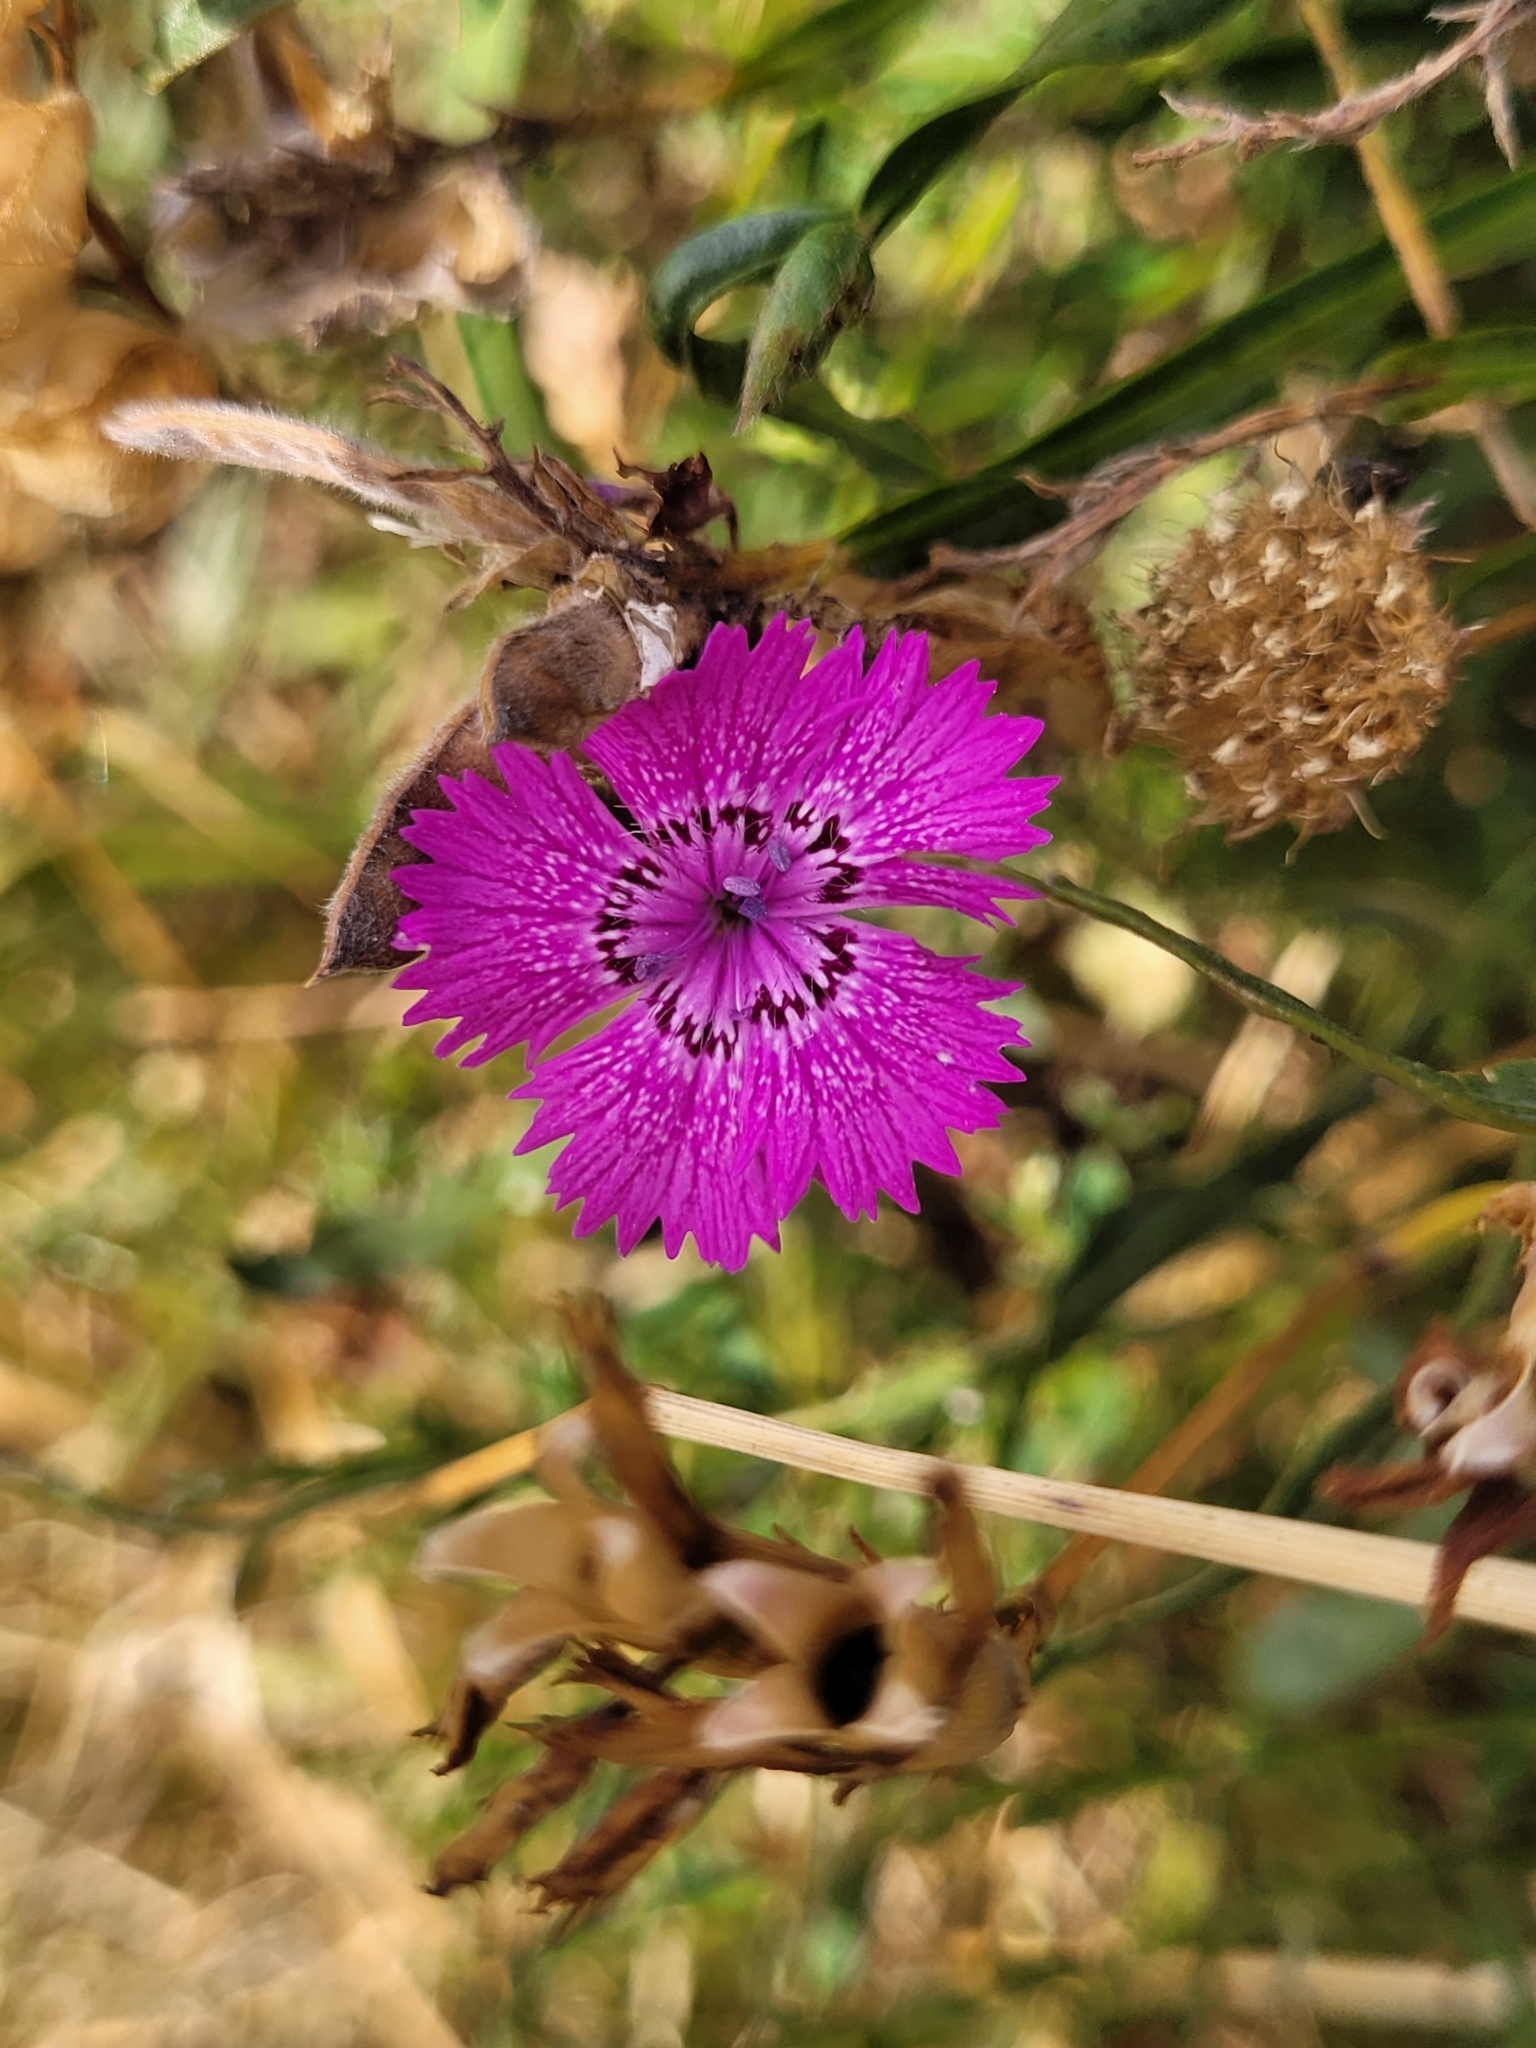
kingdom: Plantae
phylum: Tracheophyta
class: Magnoliopsida
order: Caryophyllales
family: Caryophyllaceae
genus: Dianthus
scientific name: Dianthus seguieri
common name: Ragged pink
